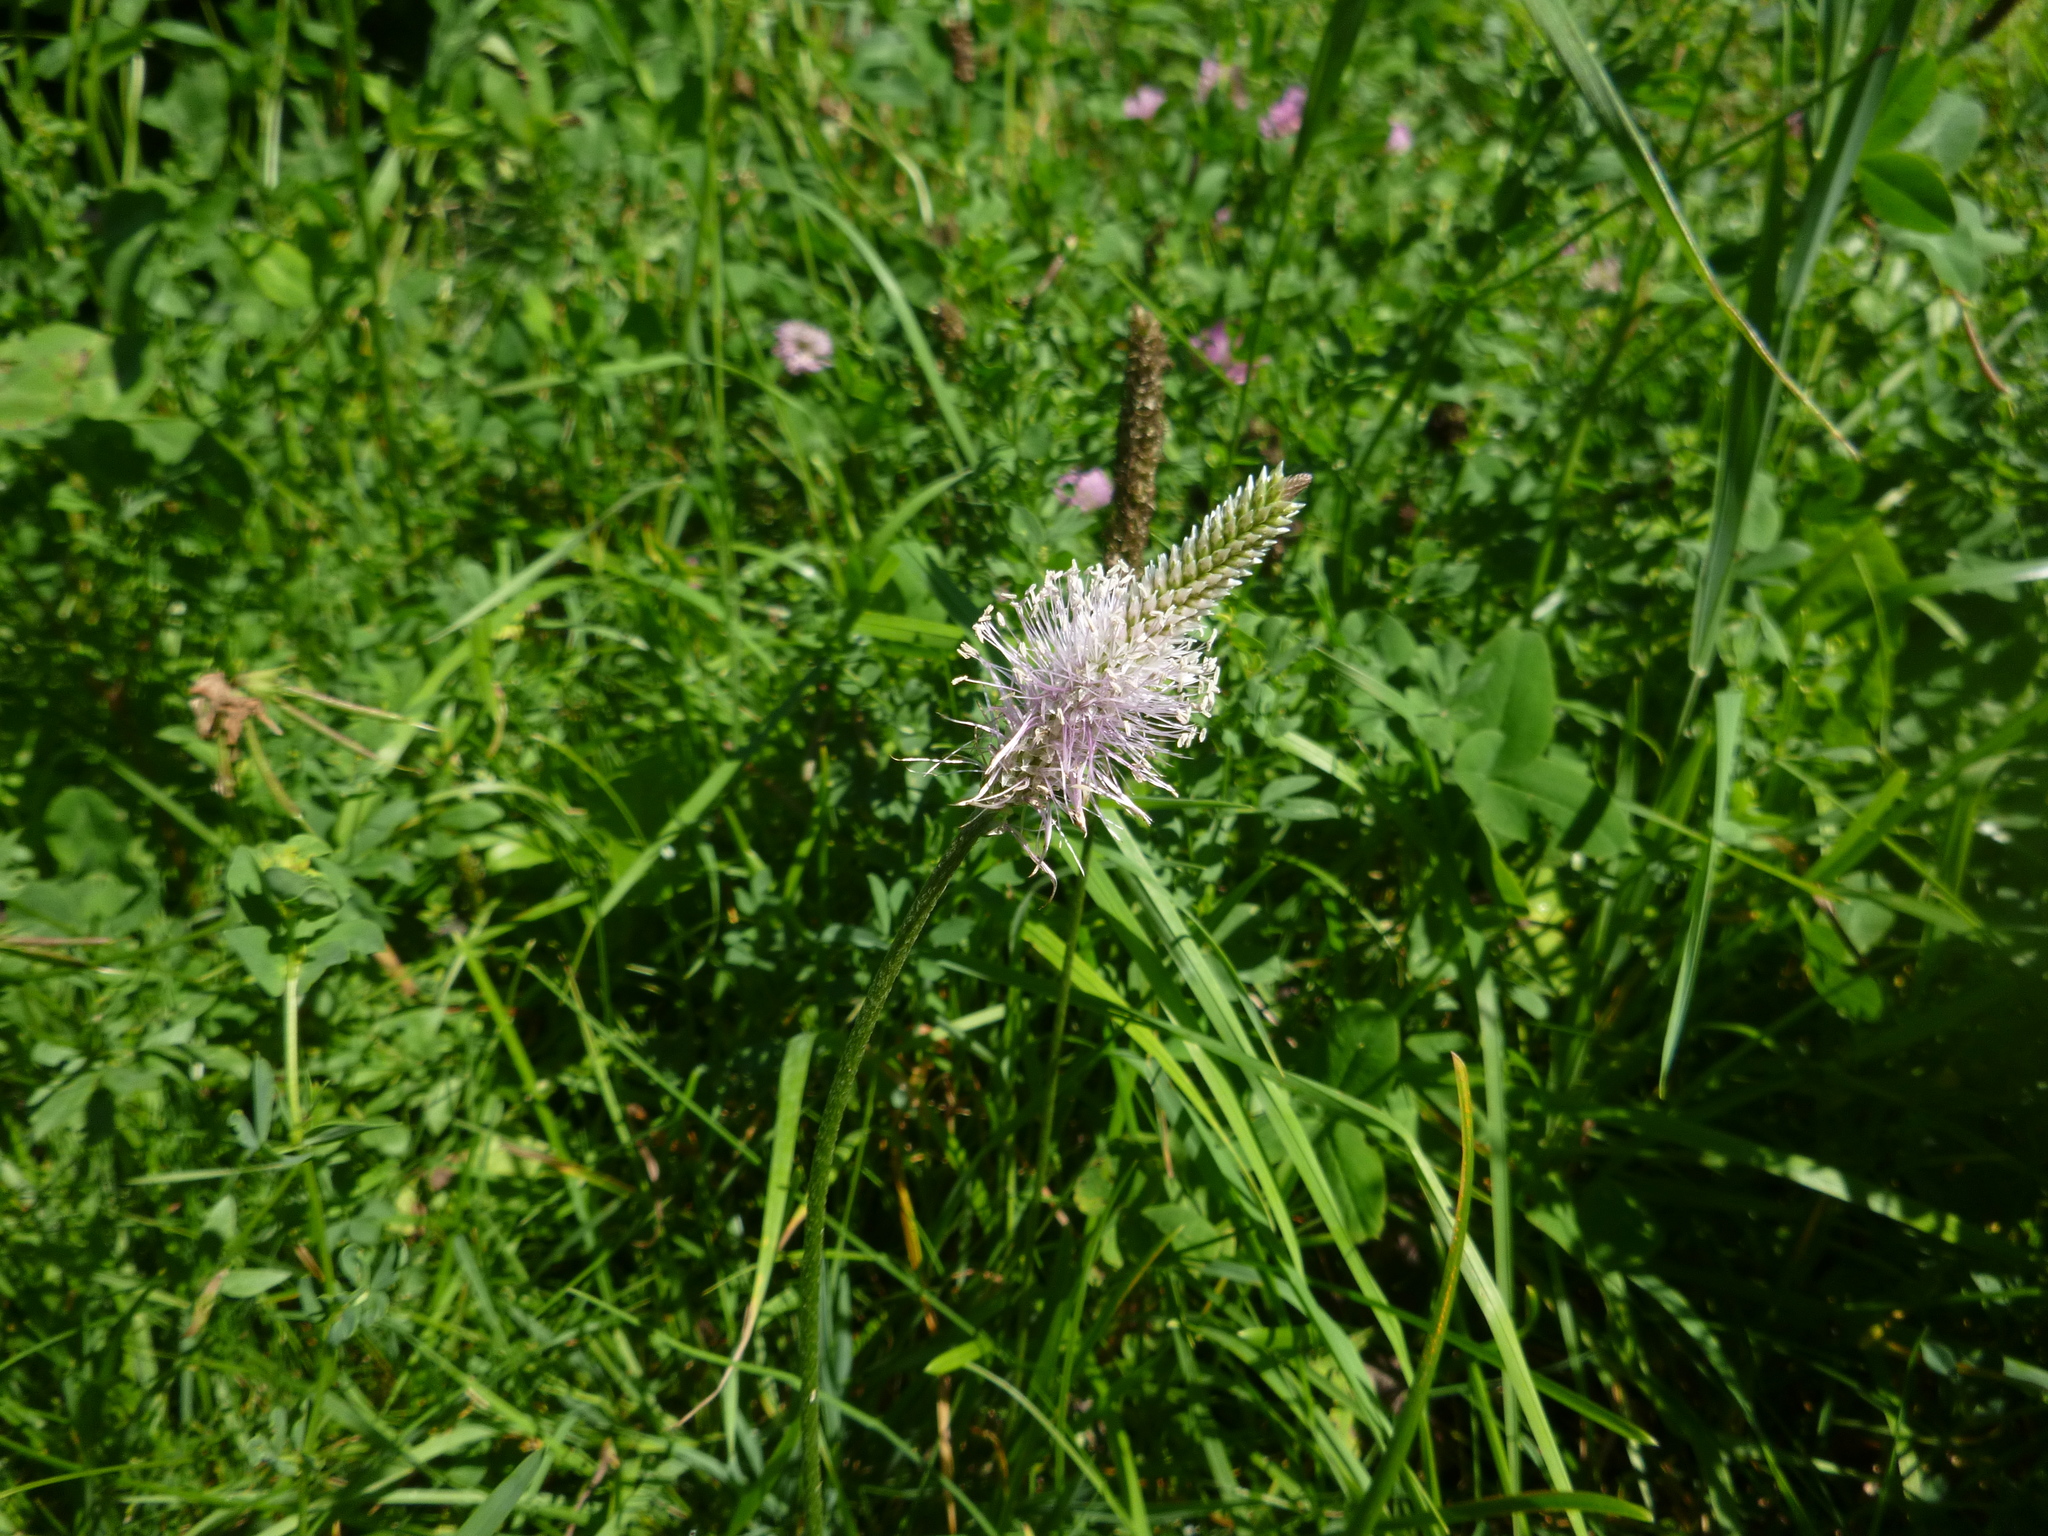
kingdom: Plantae
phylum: Tracheophyta
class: Magnoliopsida
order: Lamiales
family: Plantaginaceae
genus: Plantago
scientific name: Plantago media
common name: Hoary plantain
